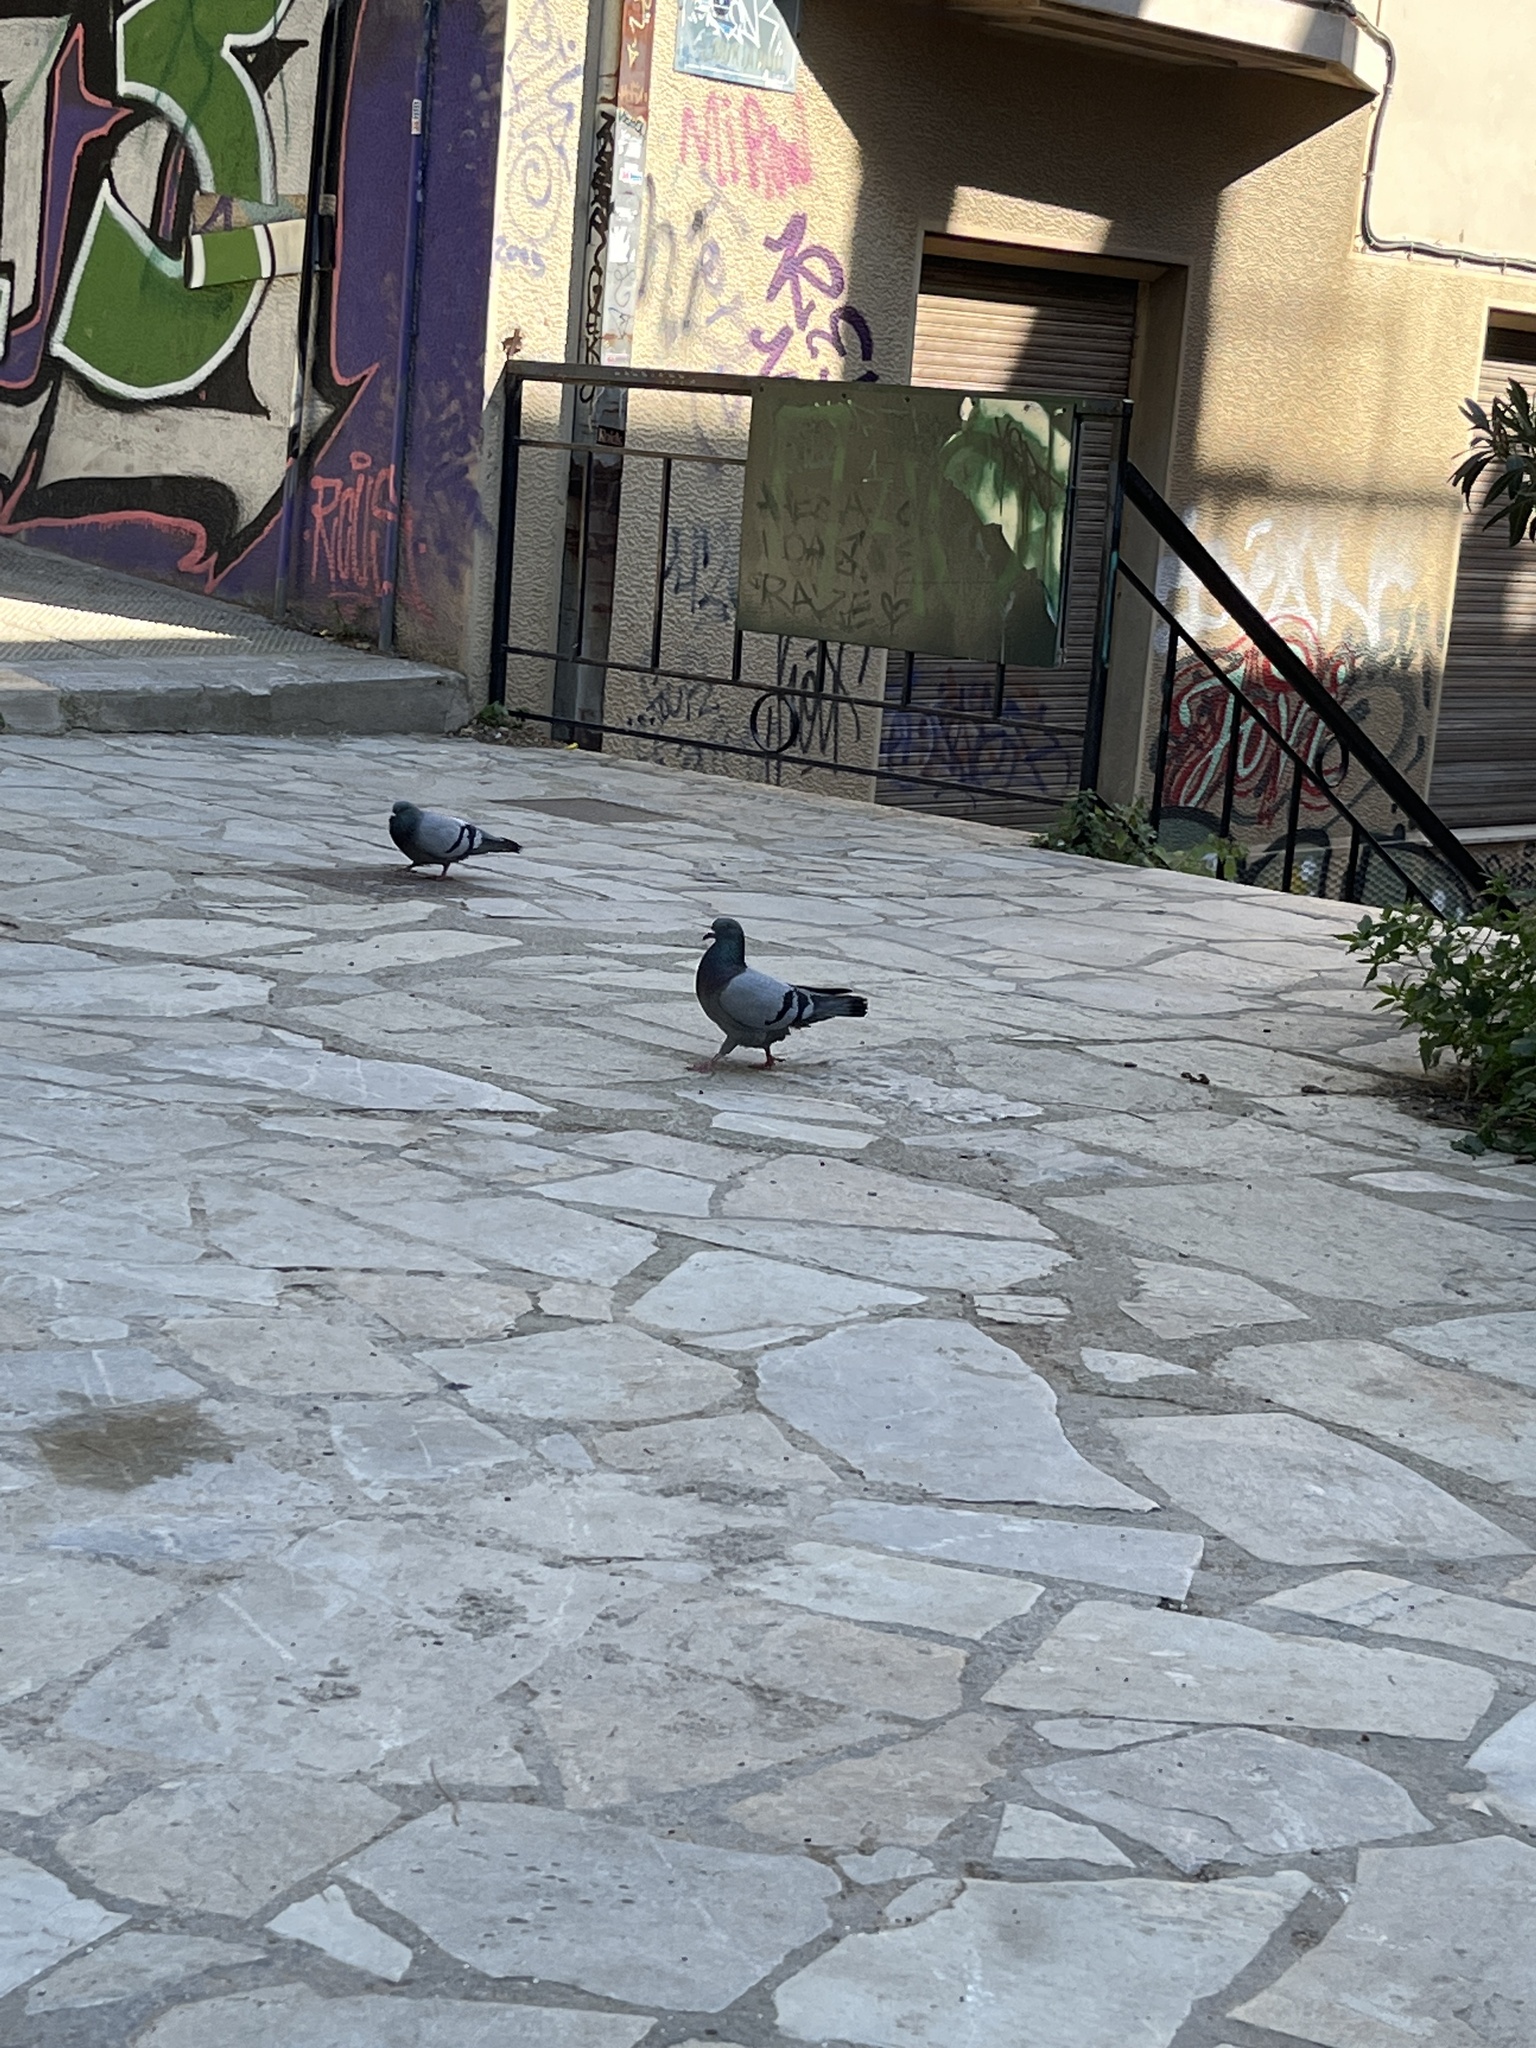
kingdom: Animalia
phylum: Chordata
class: Aves
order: Columbiformes
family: Columbidae
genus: Columba
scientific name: Columba livia
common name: Rock pigeon
